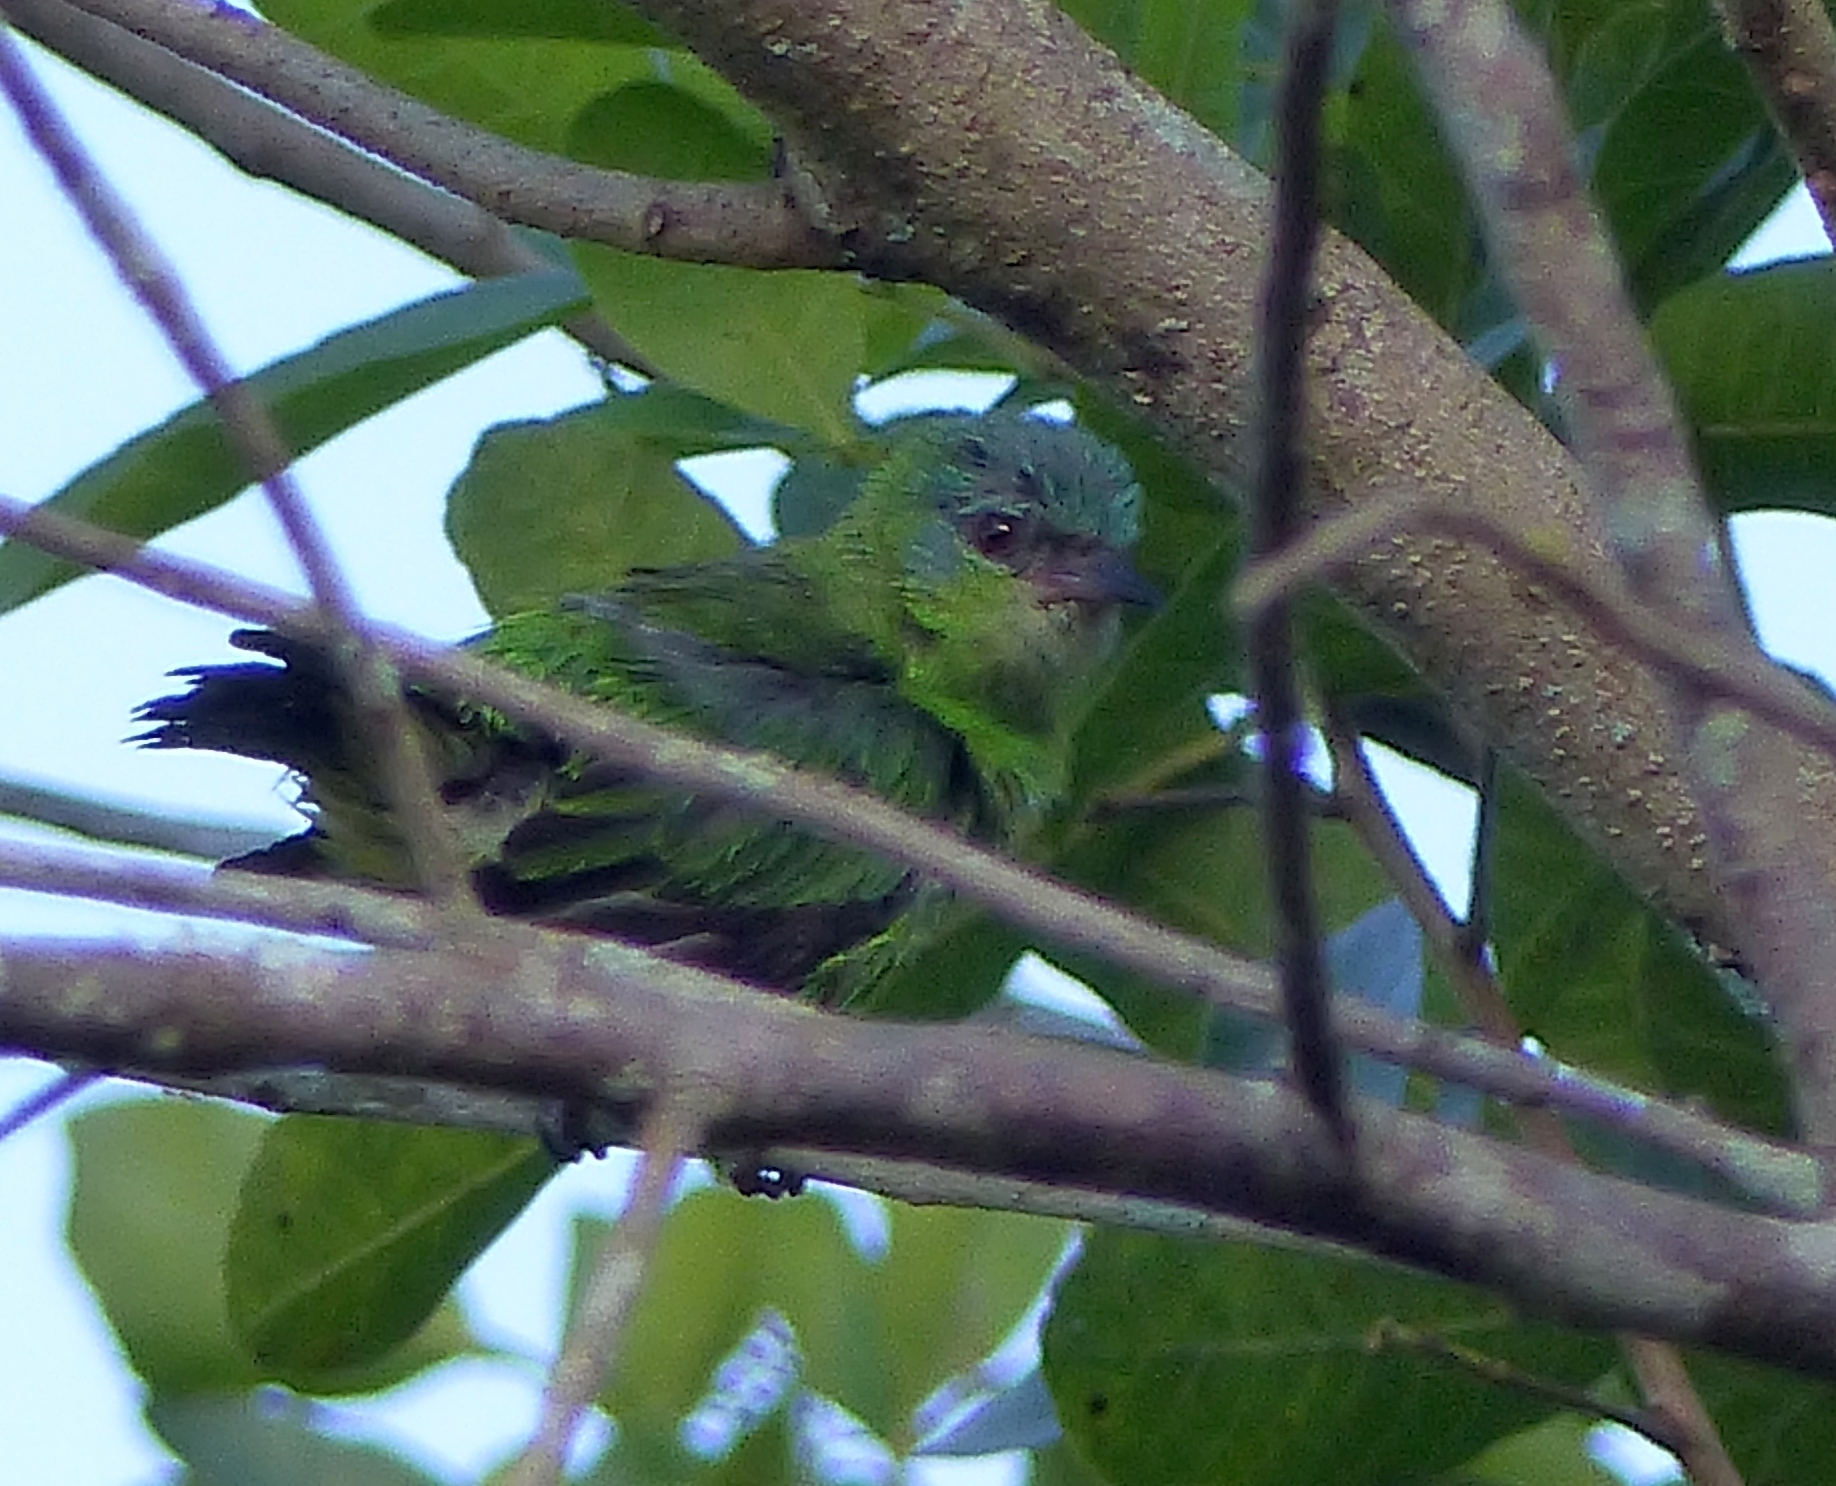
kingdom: Animalia
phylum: Chordata
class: Aves
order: Passeriformes
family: Thraupidae
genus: Dacnis
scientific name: Dacnis cayana
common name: Blue dacnis
